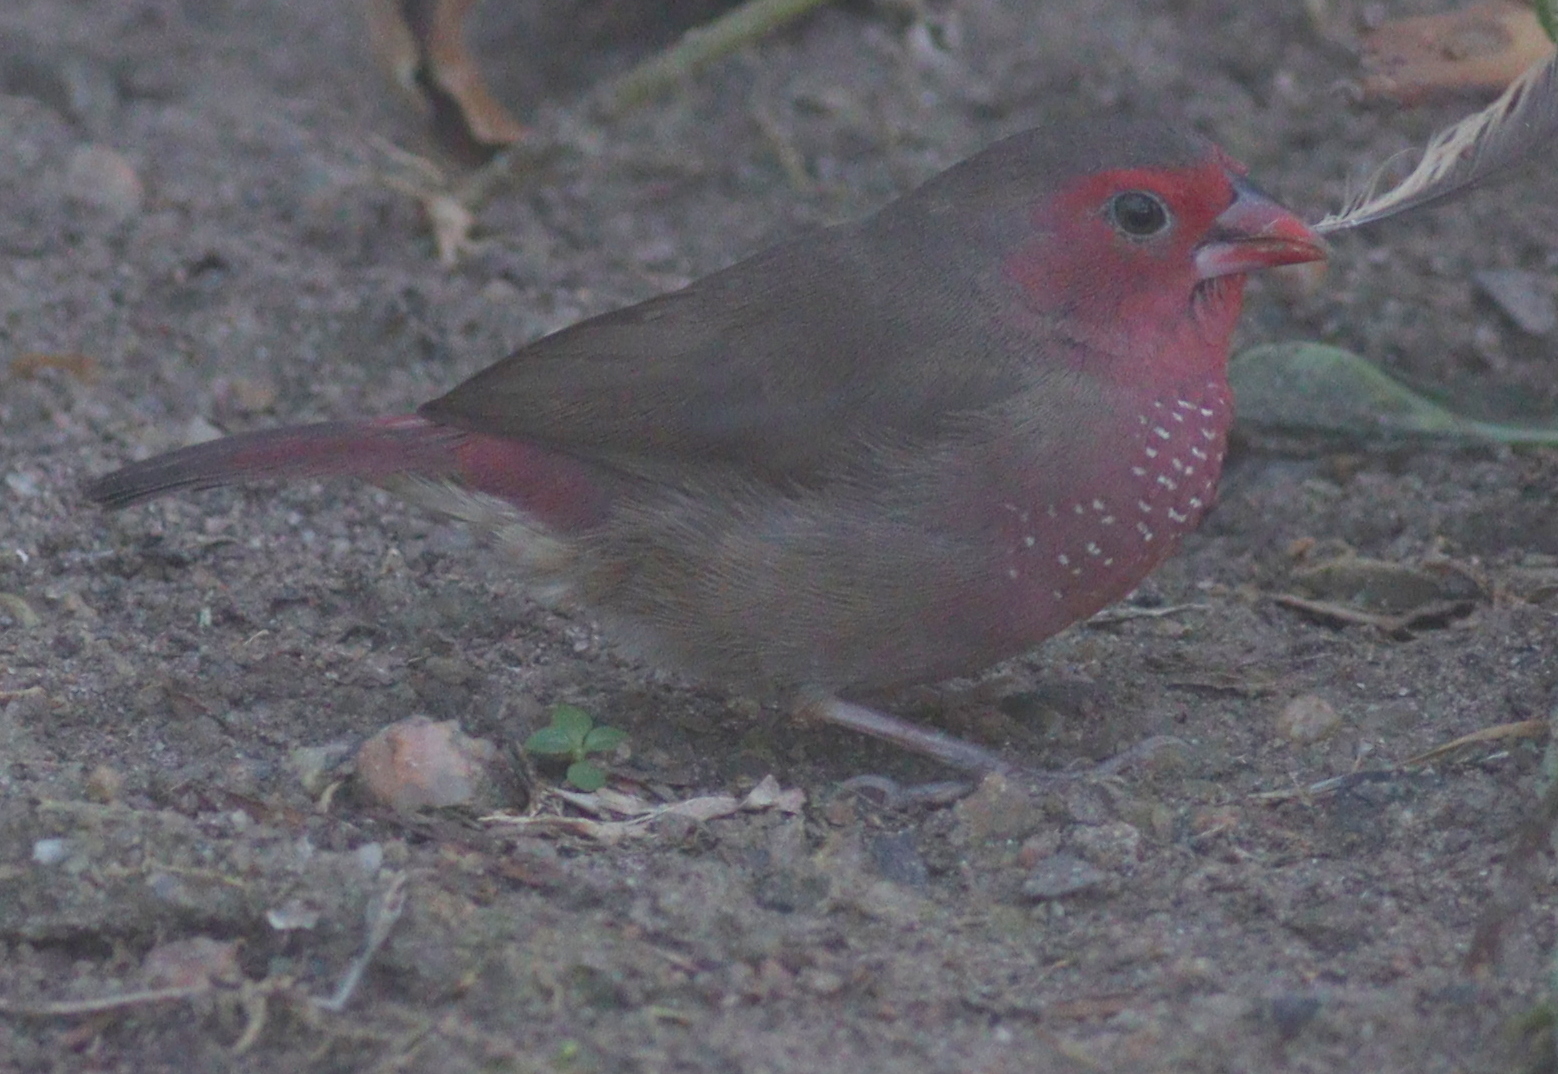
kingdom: Animalia
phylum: Chordata
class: Aves
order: Passeriformes
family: Estrildidae
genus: Lagonosticta
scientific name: Lagonosticta rufopicta
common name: Bar-breasted firefinch
